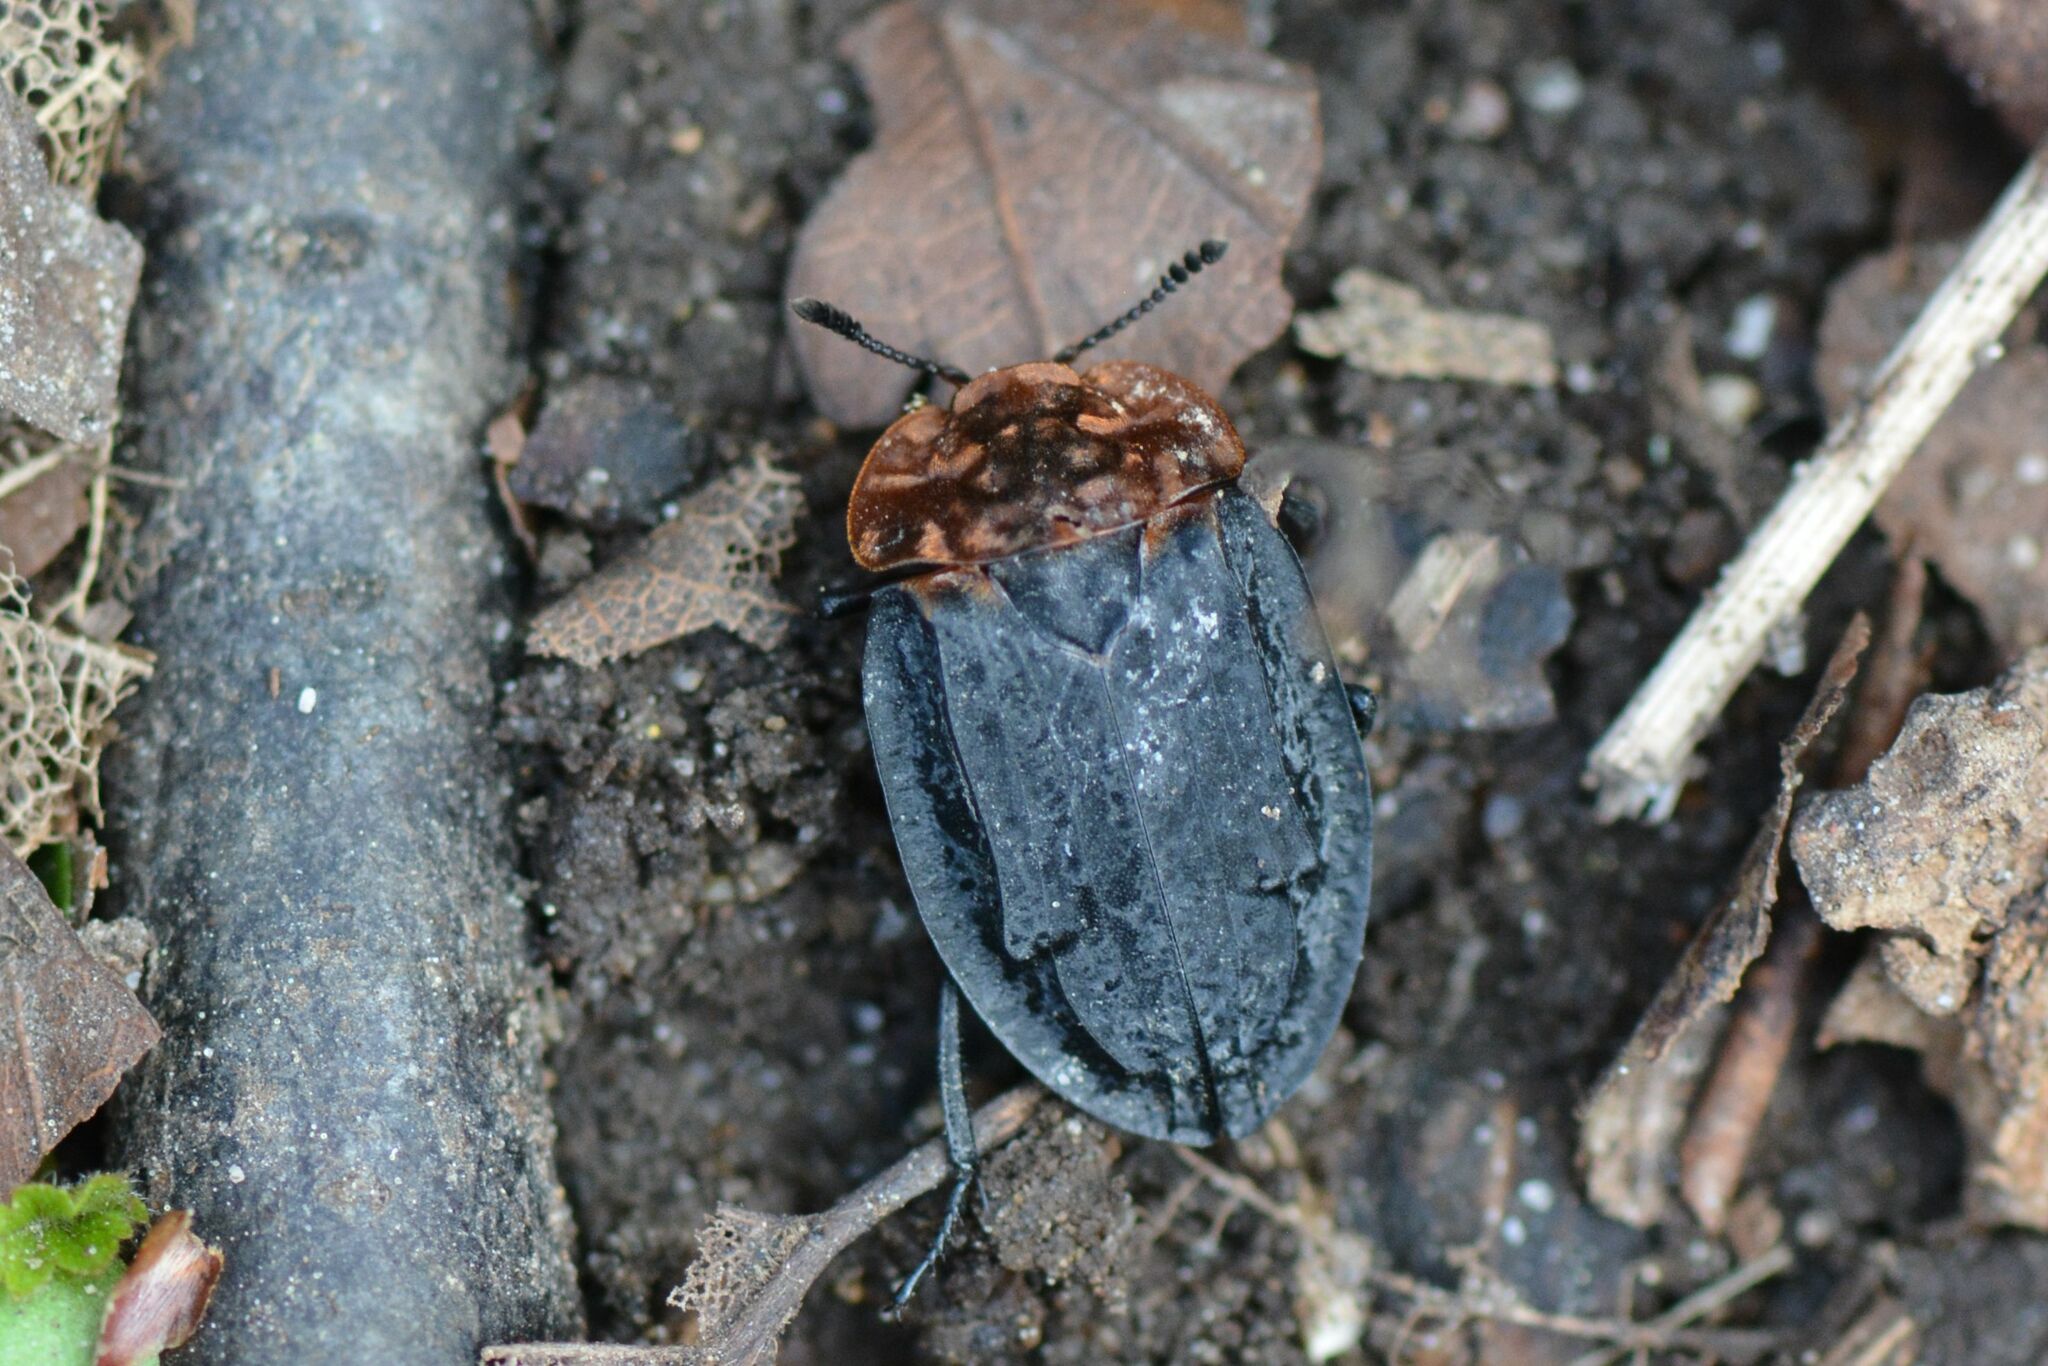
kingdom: Animalia
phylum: Arthropoda
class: Insecta
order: Coleoptera
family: Staphylinidae
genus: Oiceoptoma
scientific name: Oiceoptoma thoracicum
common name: Red-breasted carrion beetle
